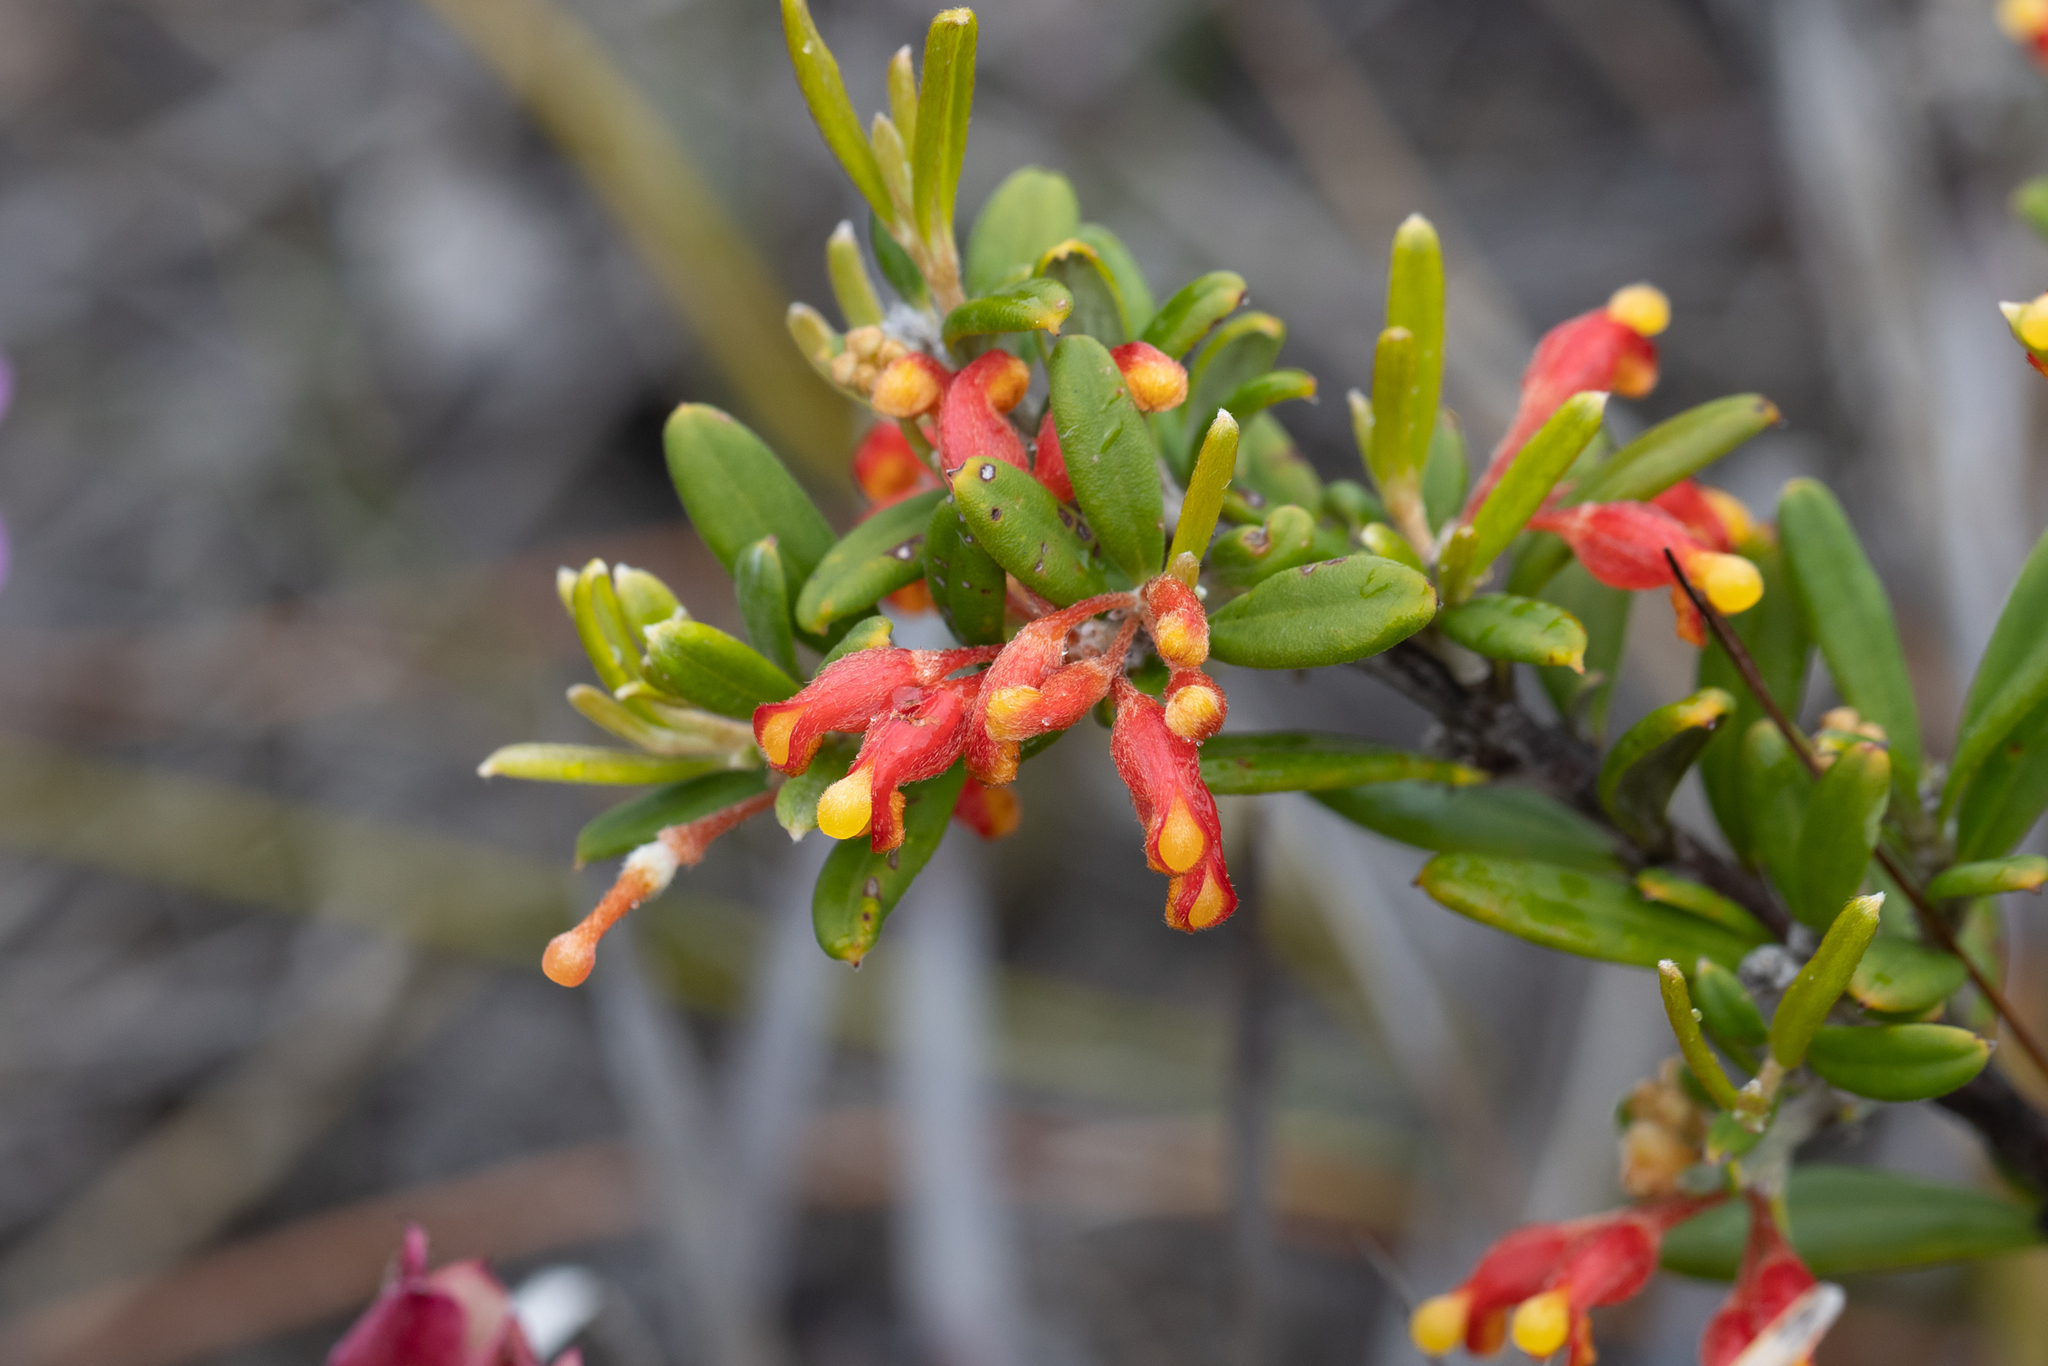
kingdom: Plantae
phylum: Tracheophyta
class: Magnoliopsida
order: Proteales
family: Proteaceae
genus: Grevillea
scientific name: Grevillea fasciculata
